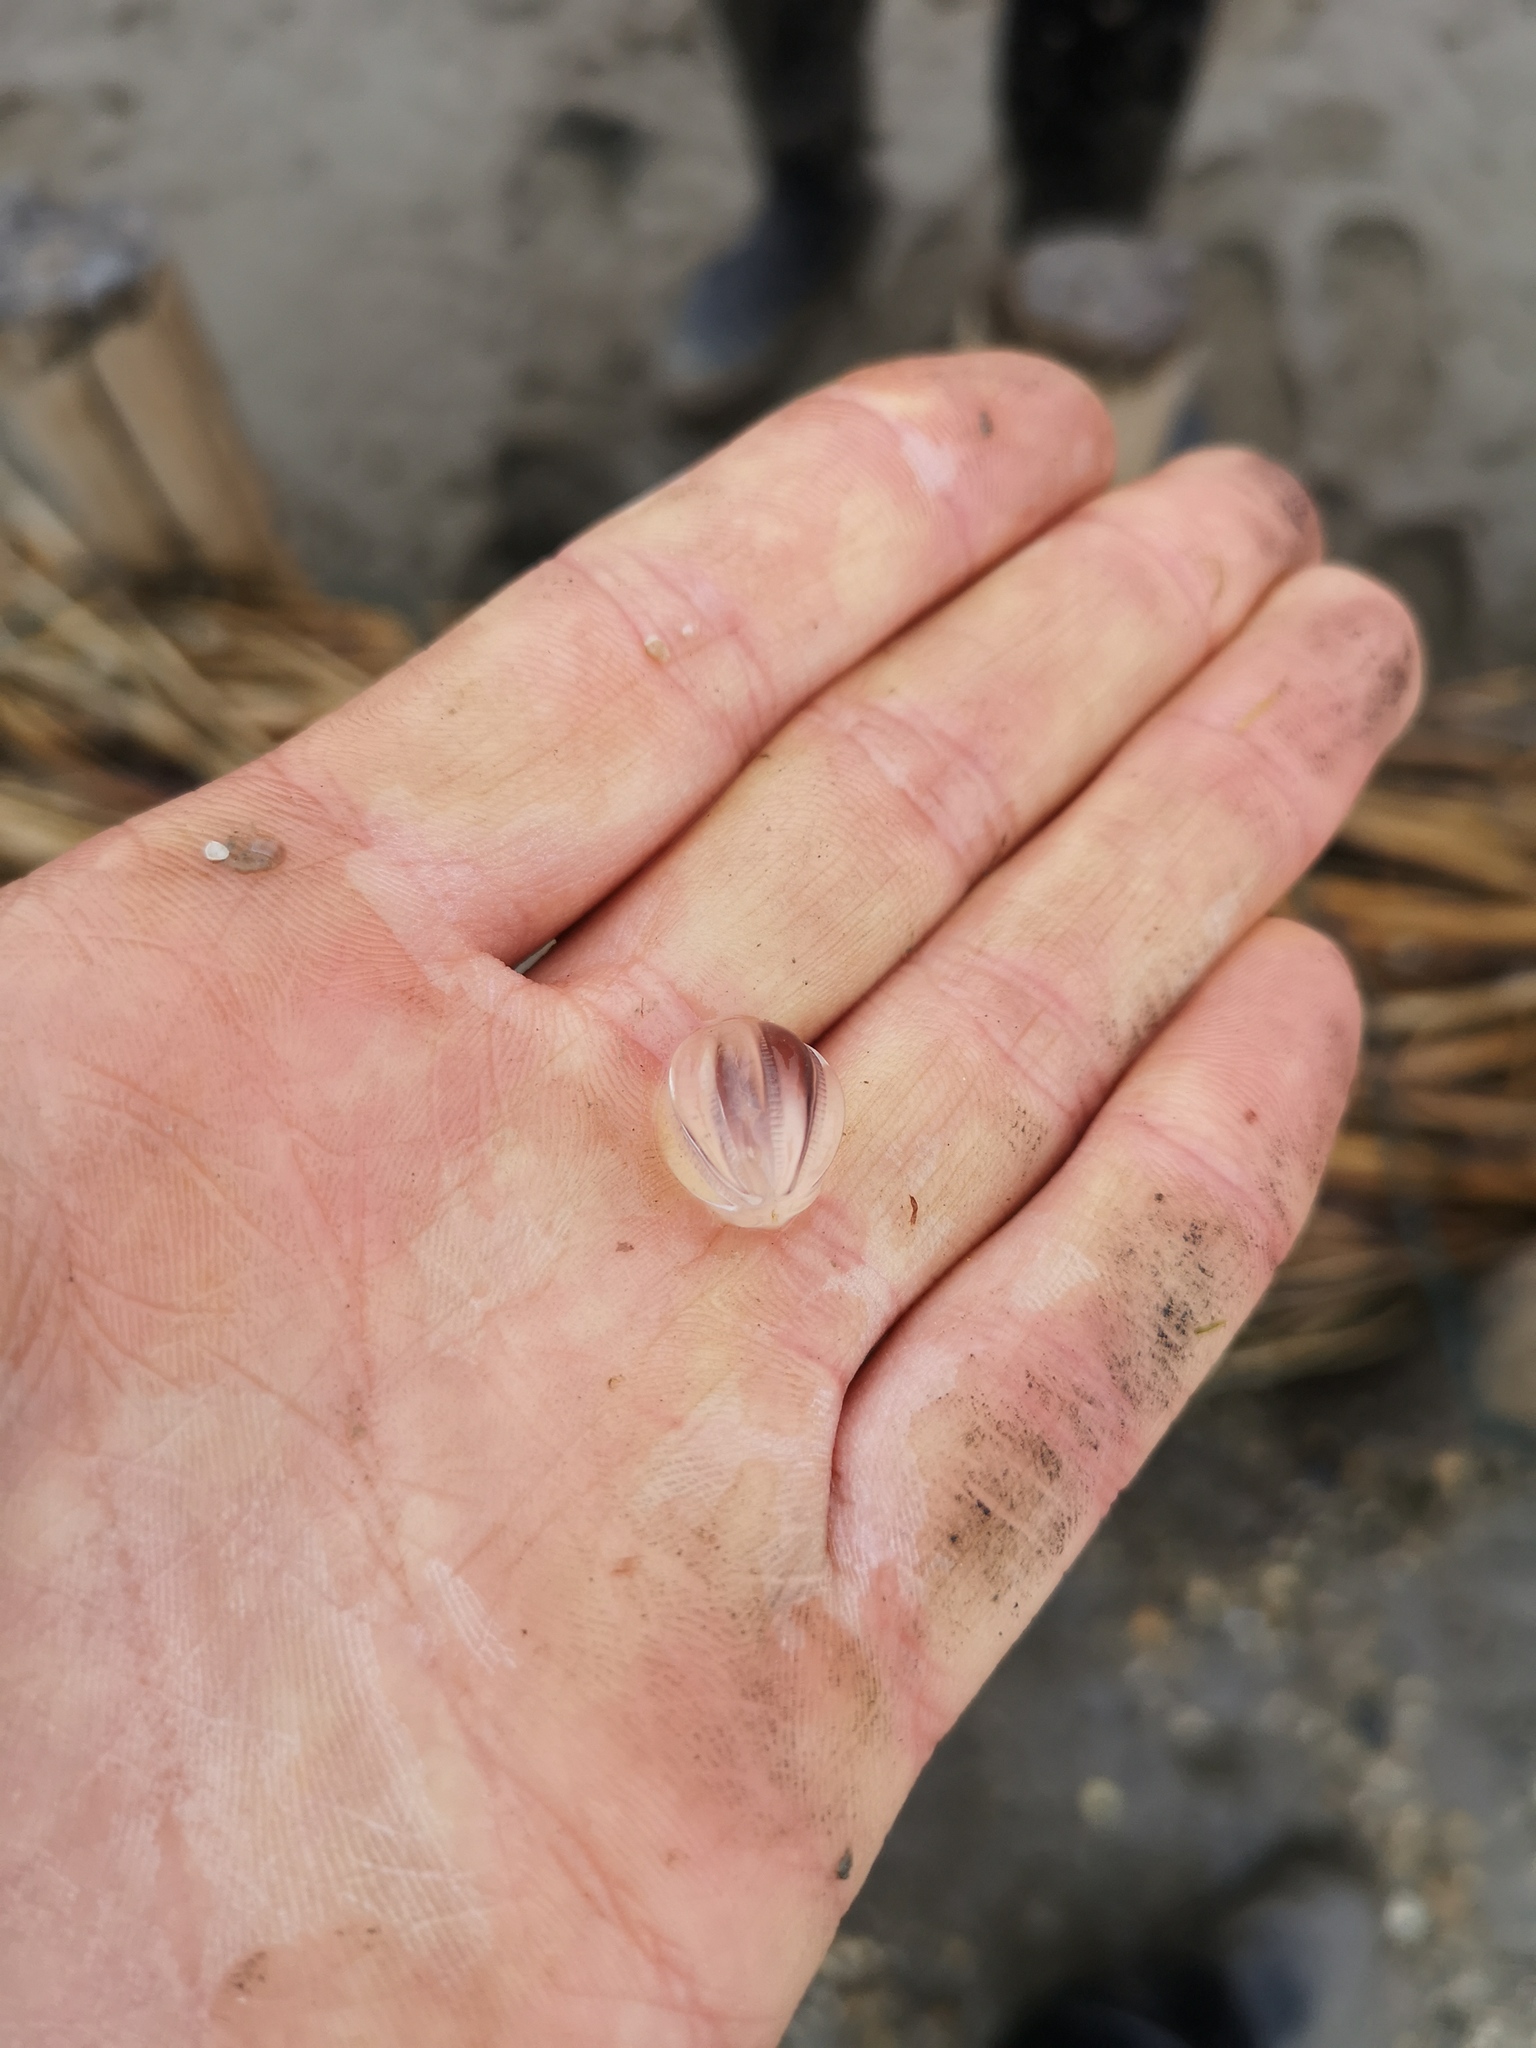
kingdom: Animalia
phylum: Ctenophora
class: Tentaculata
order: Cydippida
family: Pleurobrachiidae
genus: Pleurobrachia
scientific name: Pleurobrachia pileus
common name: Sea gooseberry
